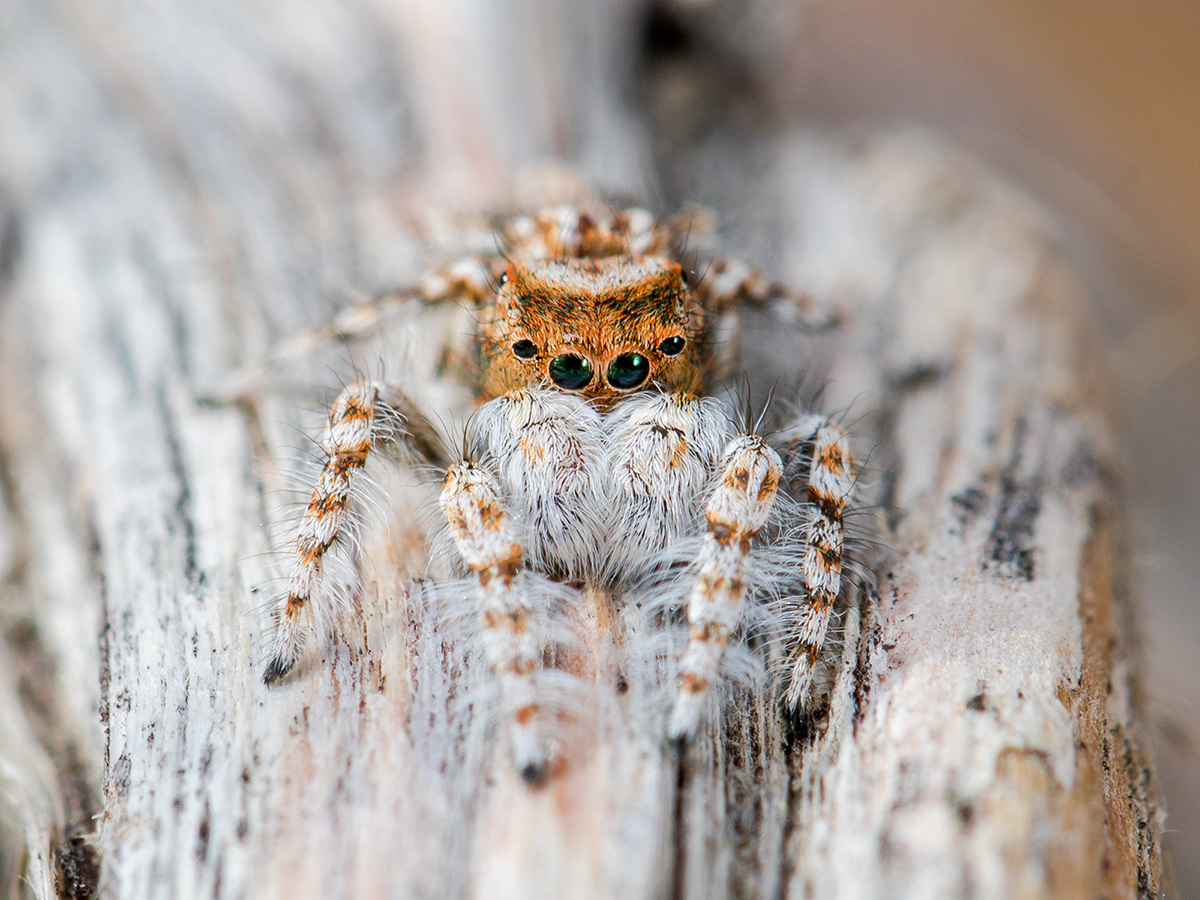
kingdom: Animalia
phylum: Arthropoda
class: Arachnida
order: Araneae
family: Salticidae
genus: Yllenus
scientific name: Yllenus uiguricus
